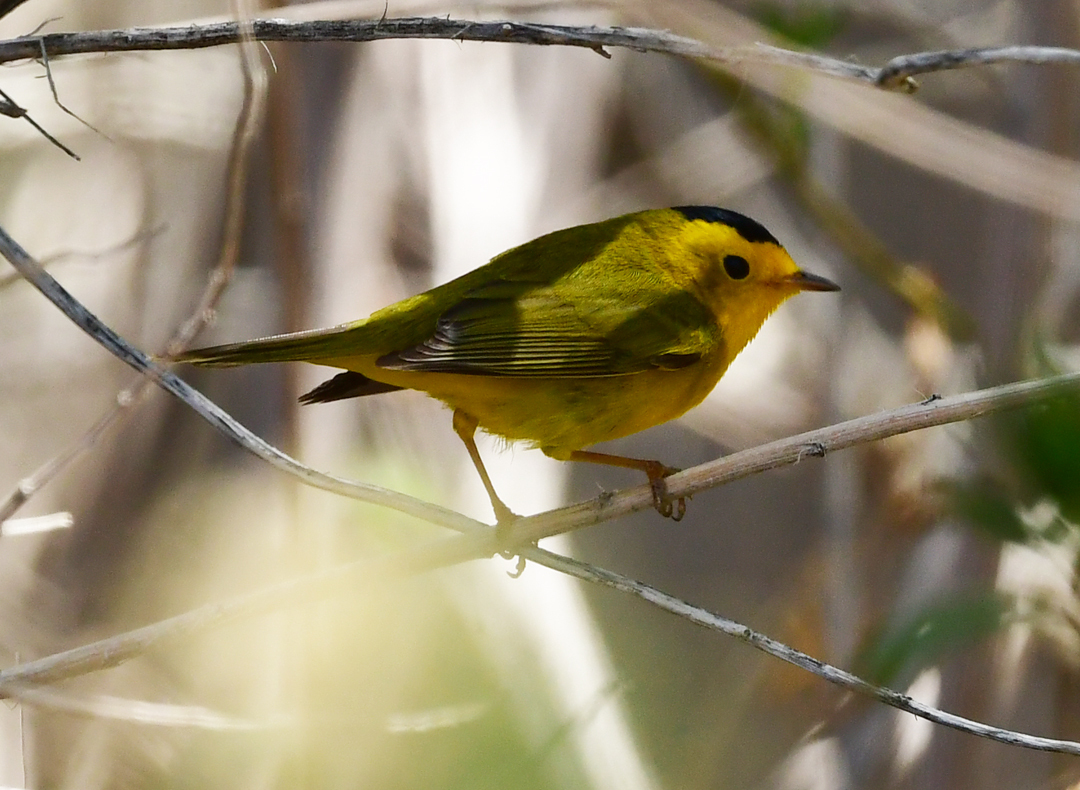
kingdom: Animalia
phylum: Chordata
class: Aves
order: Passeriformes
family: Parulidae
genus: Cardellina
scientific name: Cardellina pusilla
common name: Wilson's warbler
